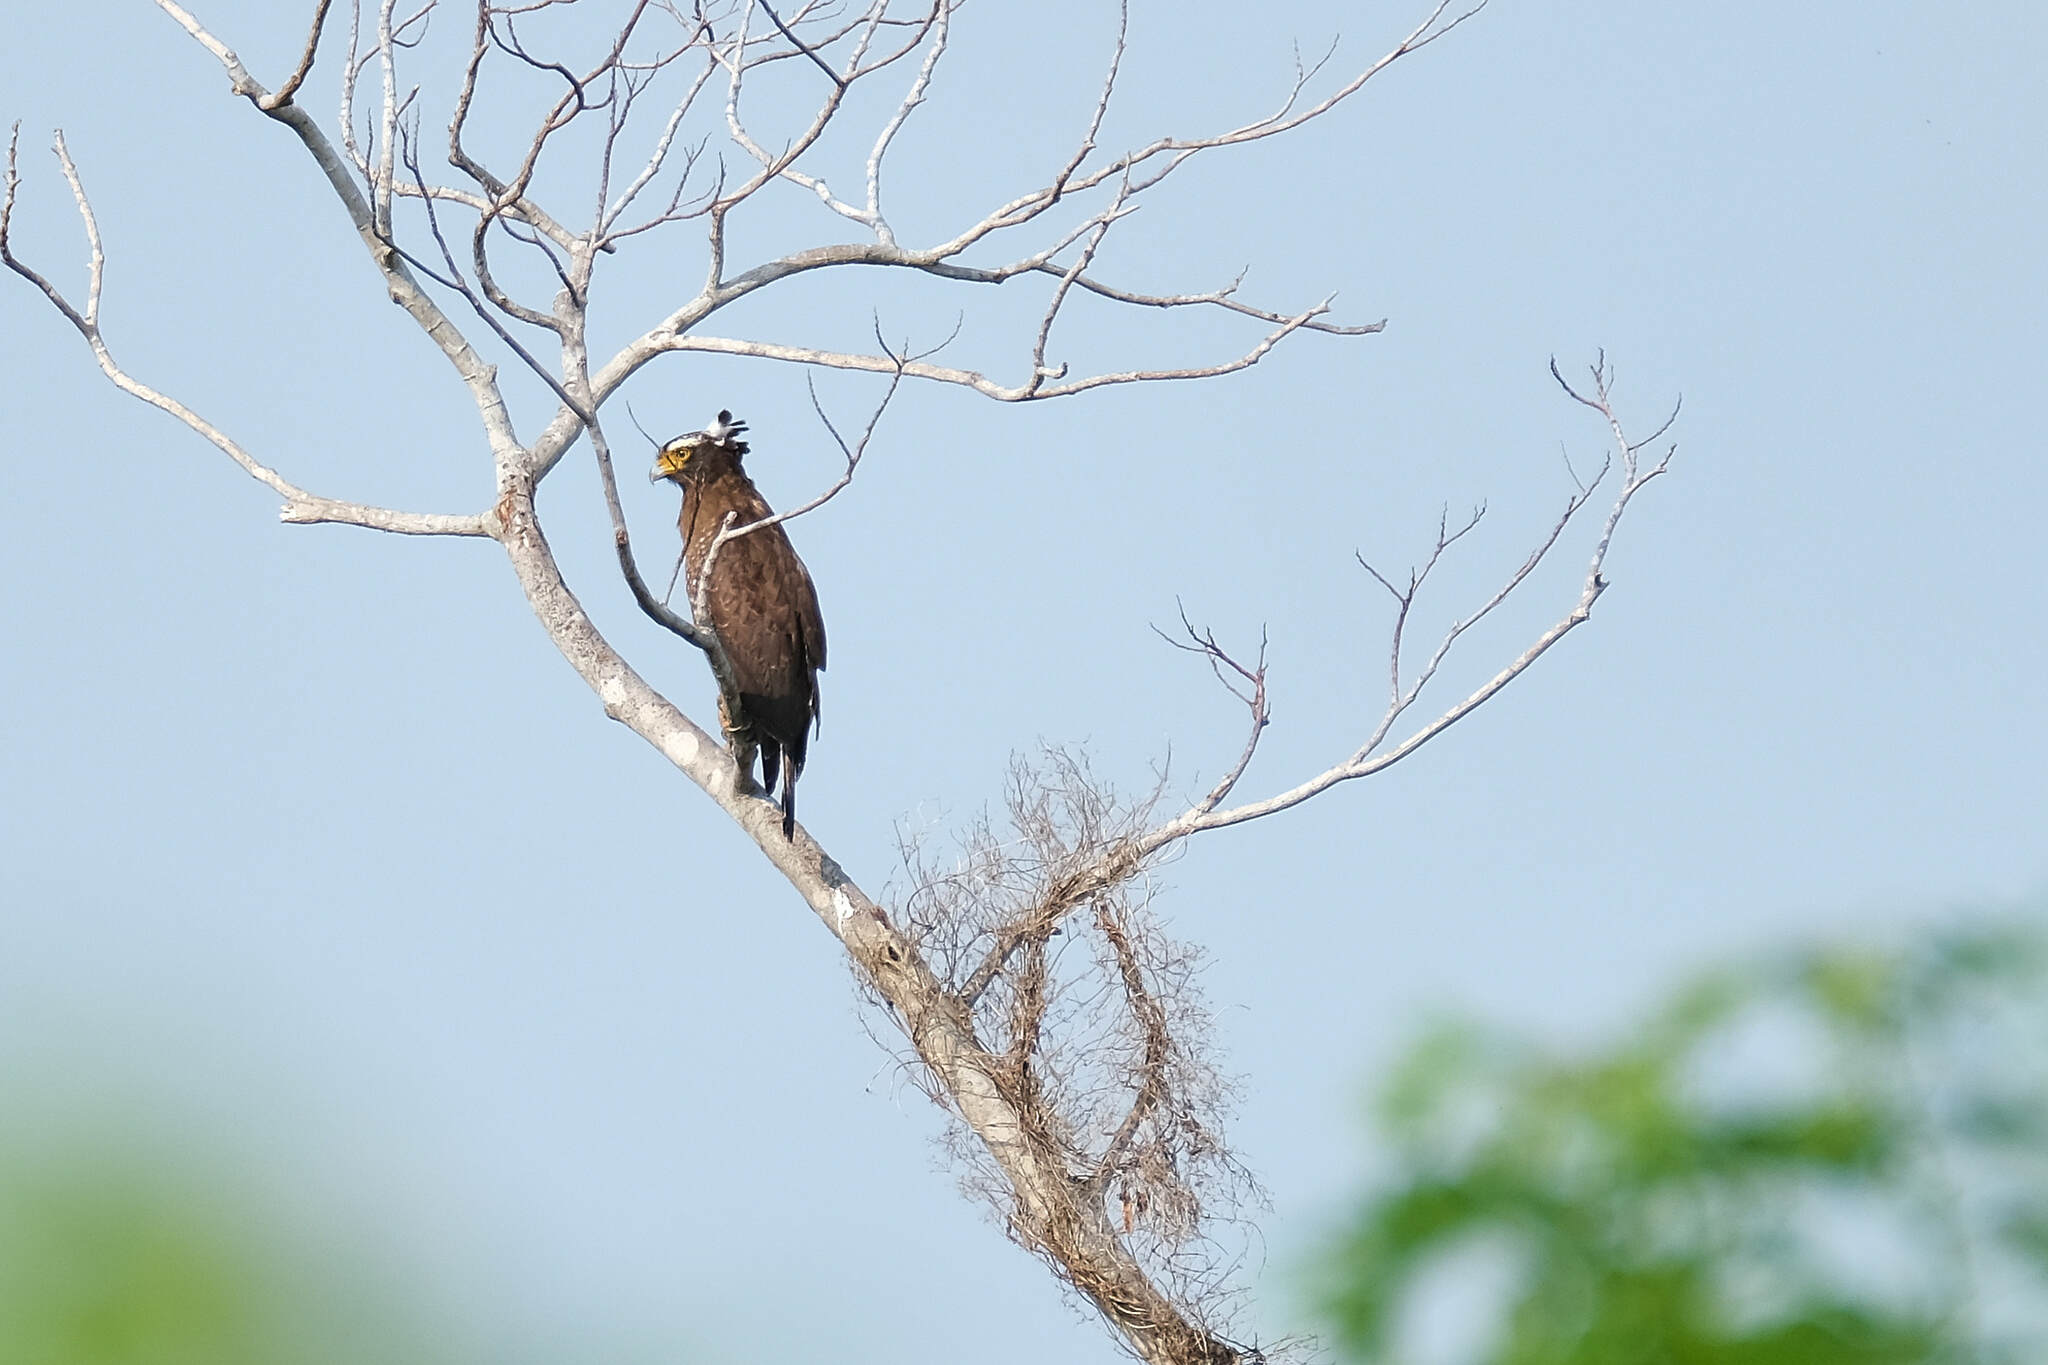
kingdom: Animalia
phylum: Chordata
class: Aves
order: Accipitriformes
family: Accipitridae
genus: Spilornis
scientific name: Spilornis cheela
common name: Crested serpent eagle
